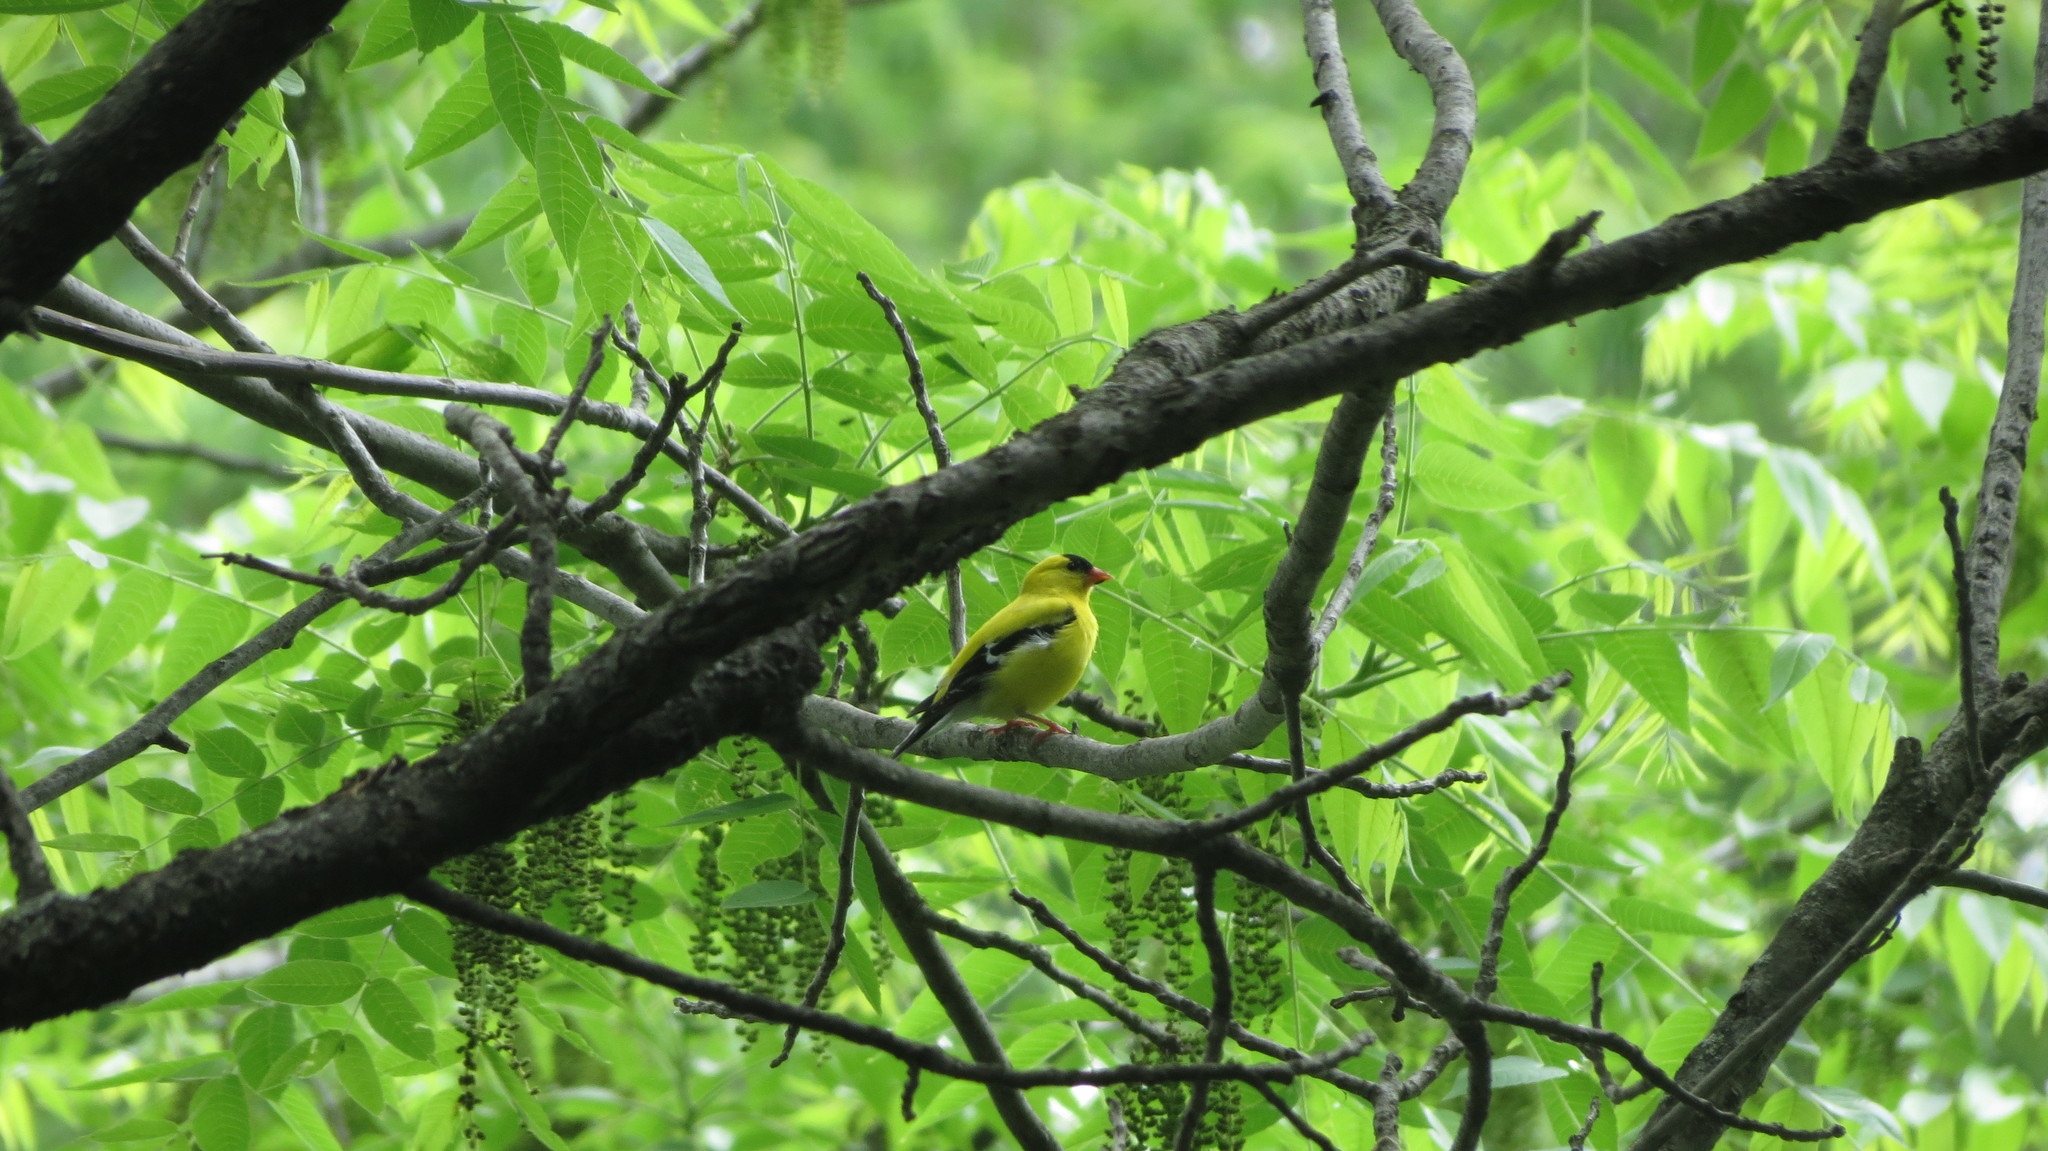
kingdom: Animalia
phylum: Chordata
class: Aves
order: Passeriformes
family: Fringillidae
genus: Spinus
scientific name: Spinus tristis
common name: American goldfinch
